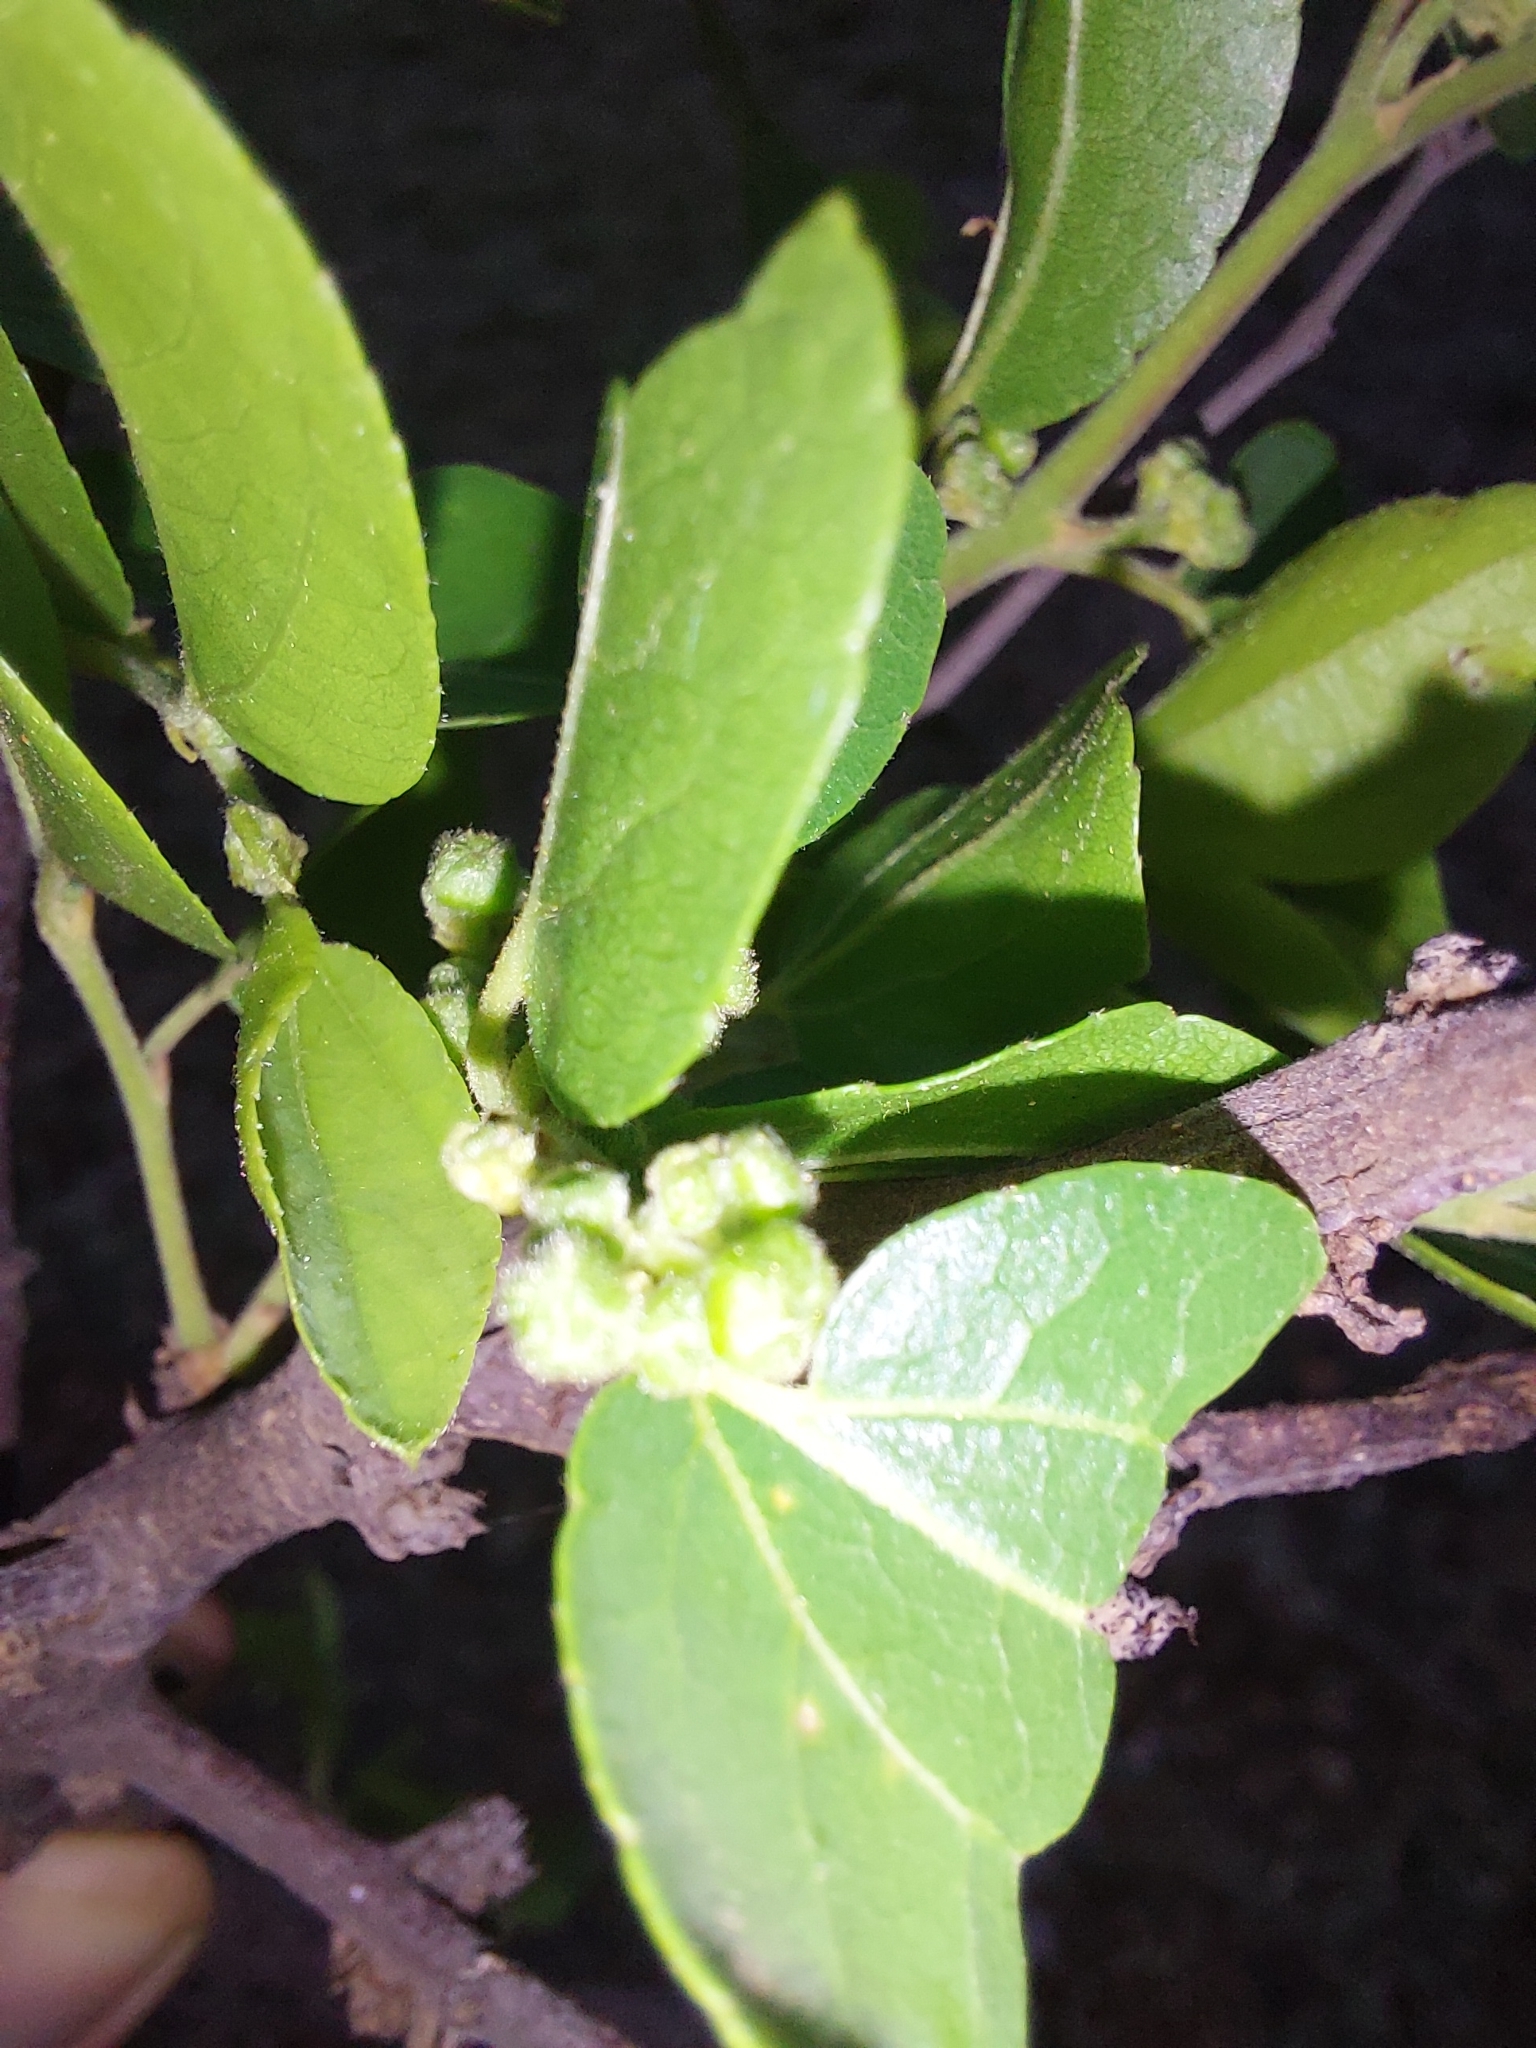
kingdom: Plantae
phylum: Tracheophyta
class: Magnoliopsida
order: Rosales
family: Rhamnaceae
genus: Ziziphus
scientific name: Ziziphus mucronata
